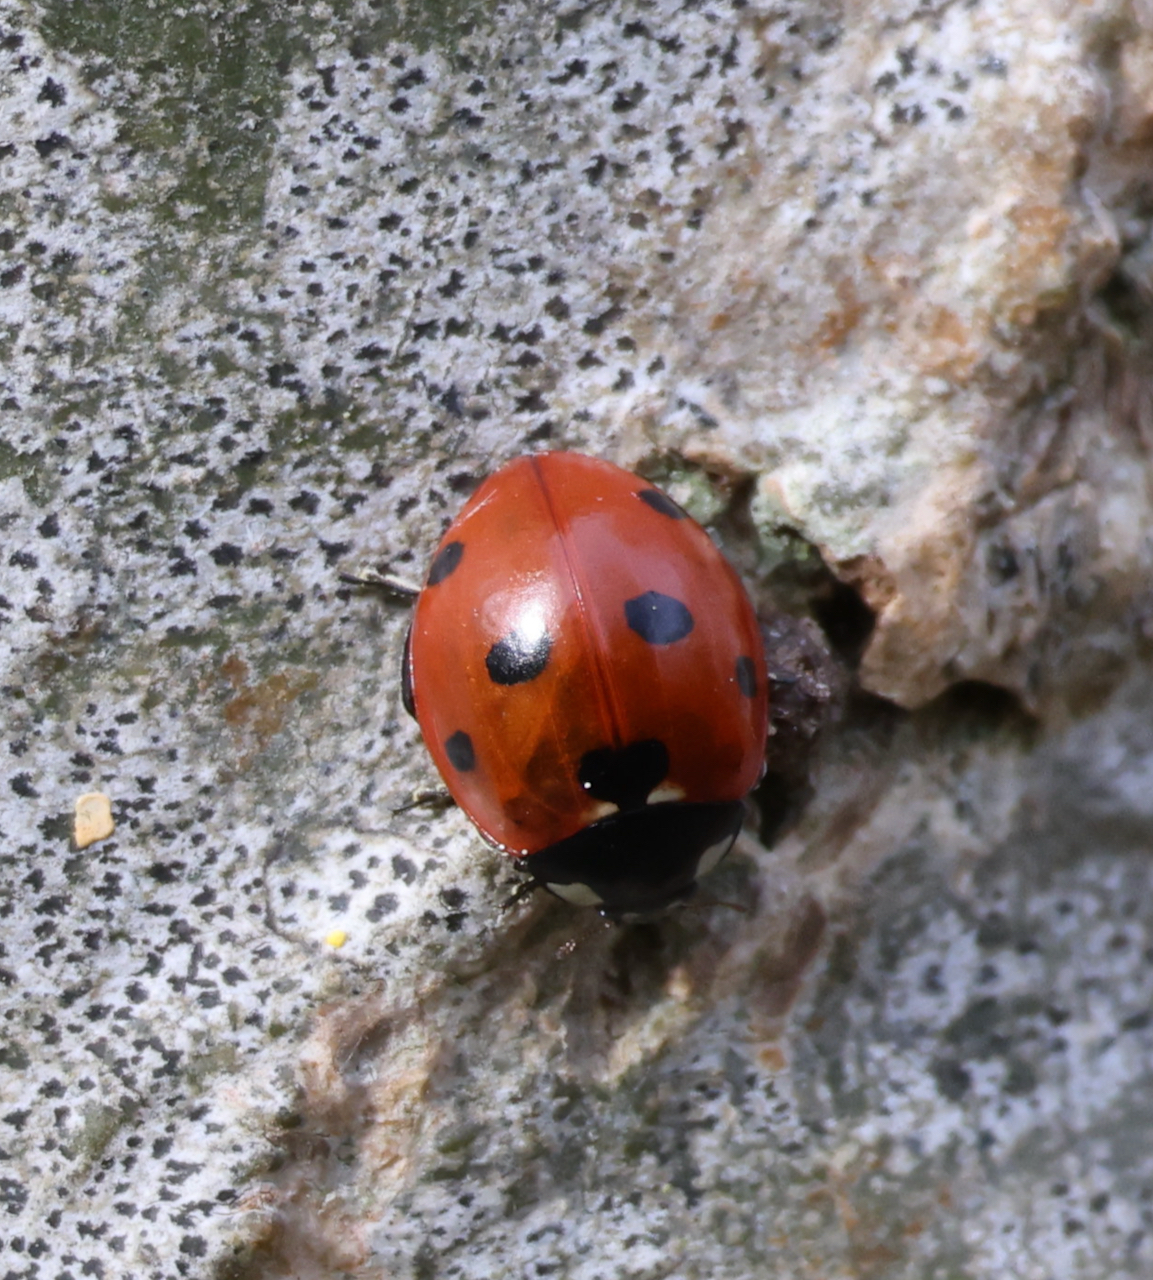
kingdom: Animalia
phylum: Arthropoda
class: Insecta
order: Coleoptera
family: Coccinellidae
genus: Coccinella
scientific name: Coccinella septempunctata
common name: Sevenspotted lady beetle
